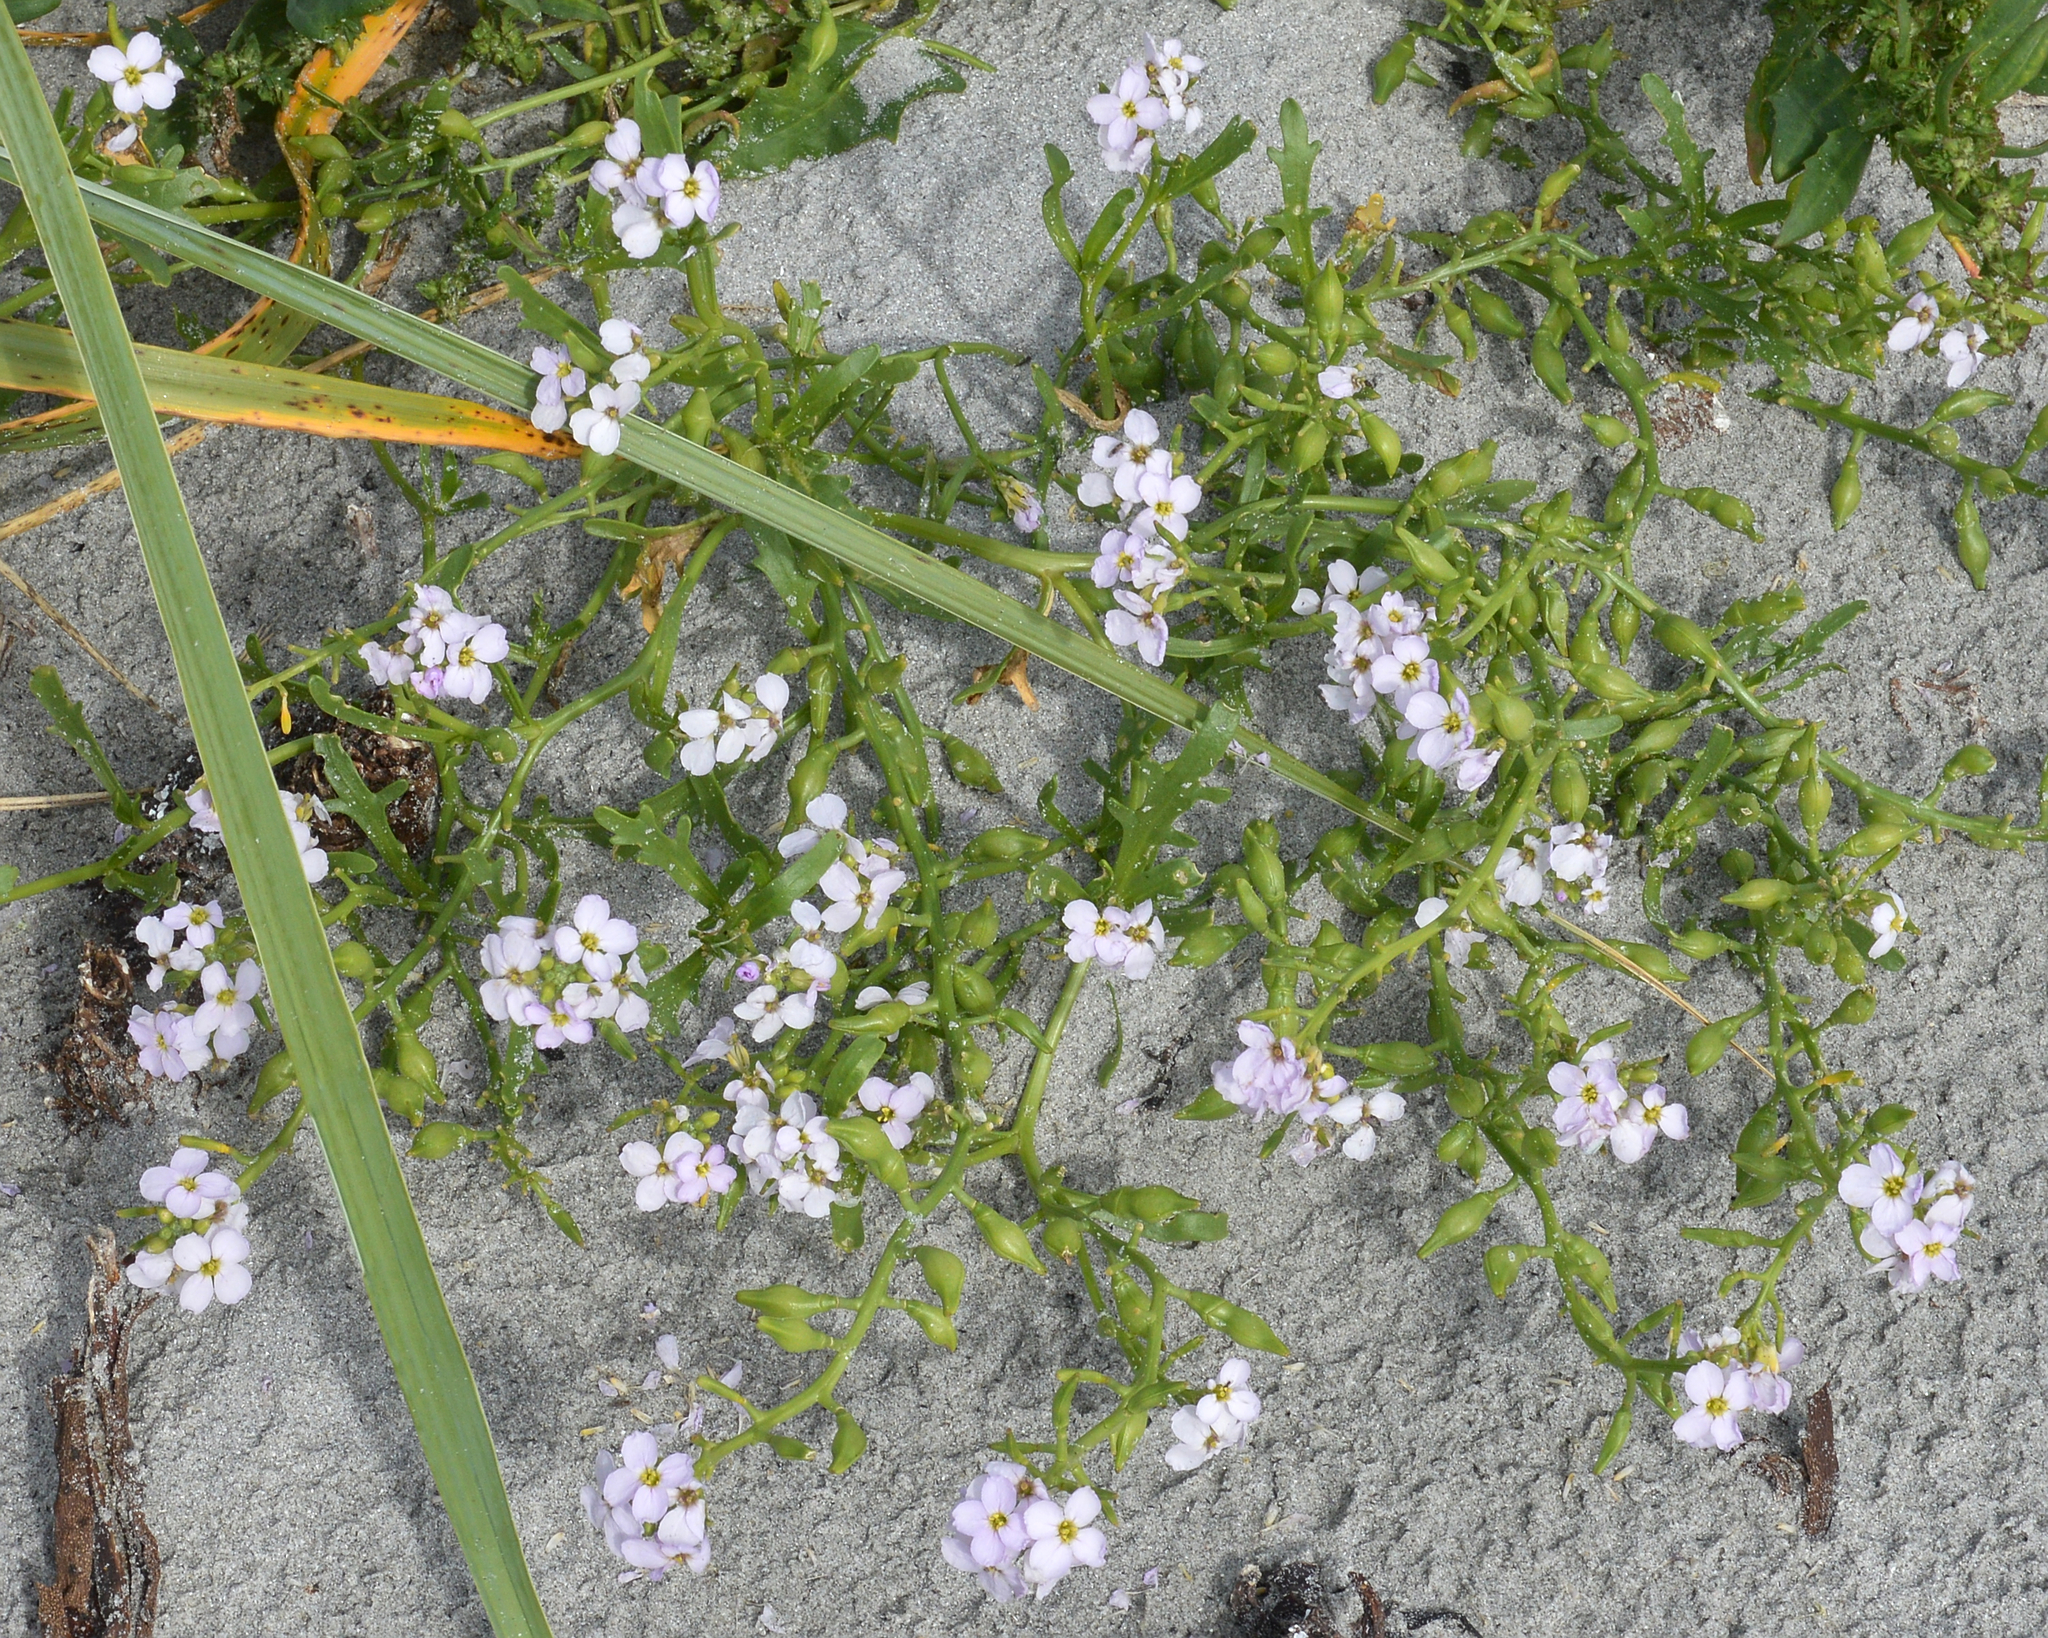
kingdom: Plantae
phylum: Tracheophyta
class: Magnoliopsida
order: Brassicales
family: Brassicaceae
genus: Cakile
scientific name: Cakile maritima
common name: Sea rocket
